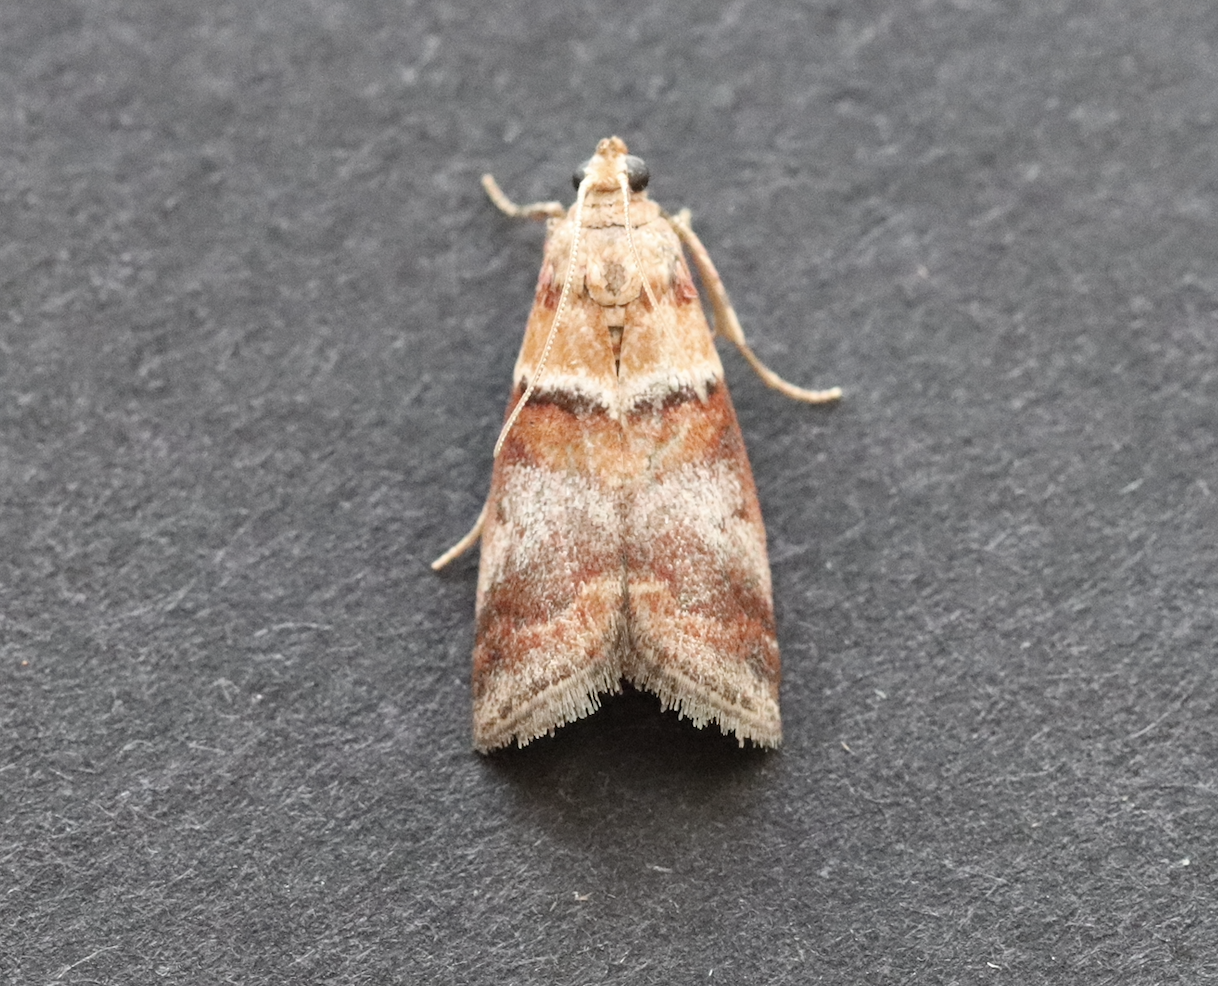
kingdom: Animalia
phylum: Arthropoda
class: Insecta
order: Lepidoptera
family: Pyralidae
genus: Acrobasis
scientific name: Acrobasis repandana
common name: Warted knot-horn
